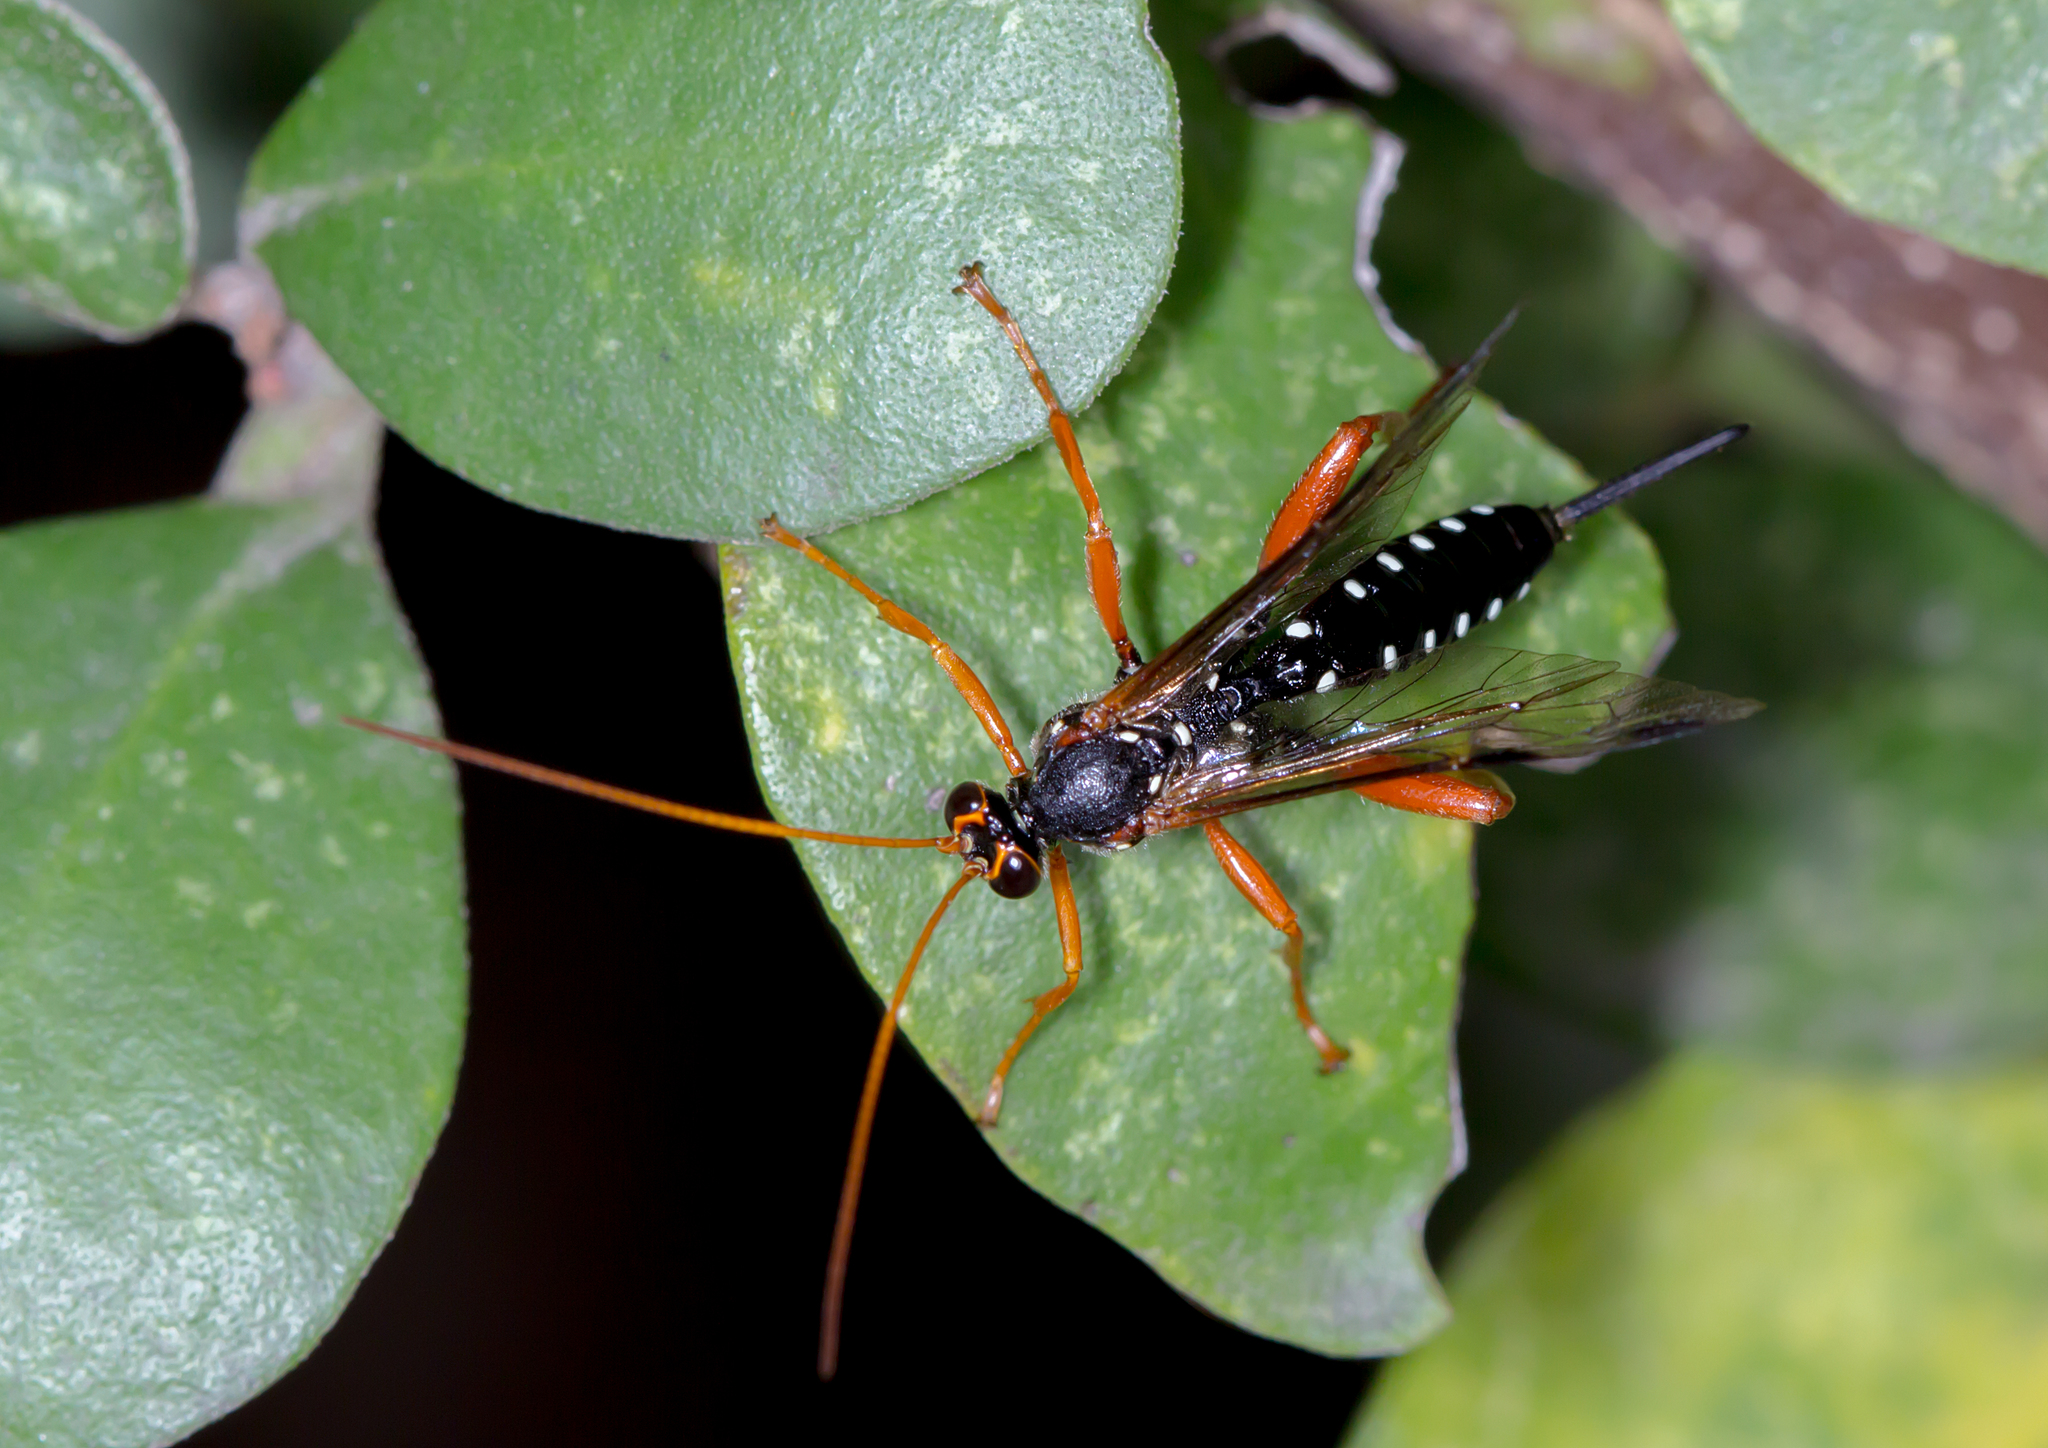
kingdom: Animalia
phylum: Arthropoda
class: Insecta
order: Hymenoptera
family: Ichneumonidae
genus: Echthromorpha
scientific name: Echthromorpha intricatoria
